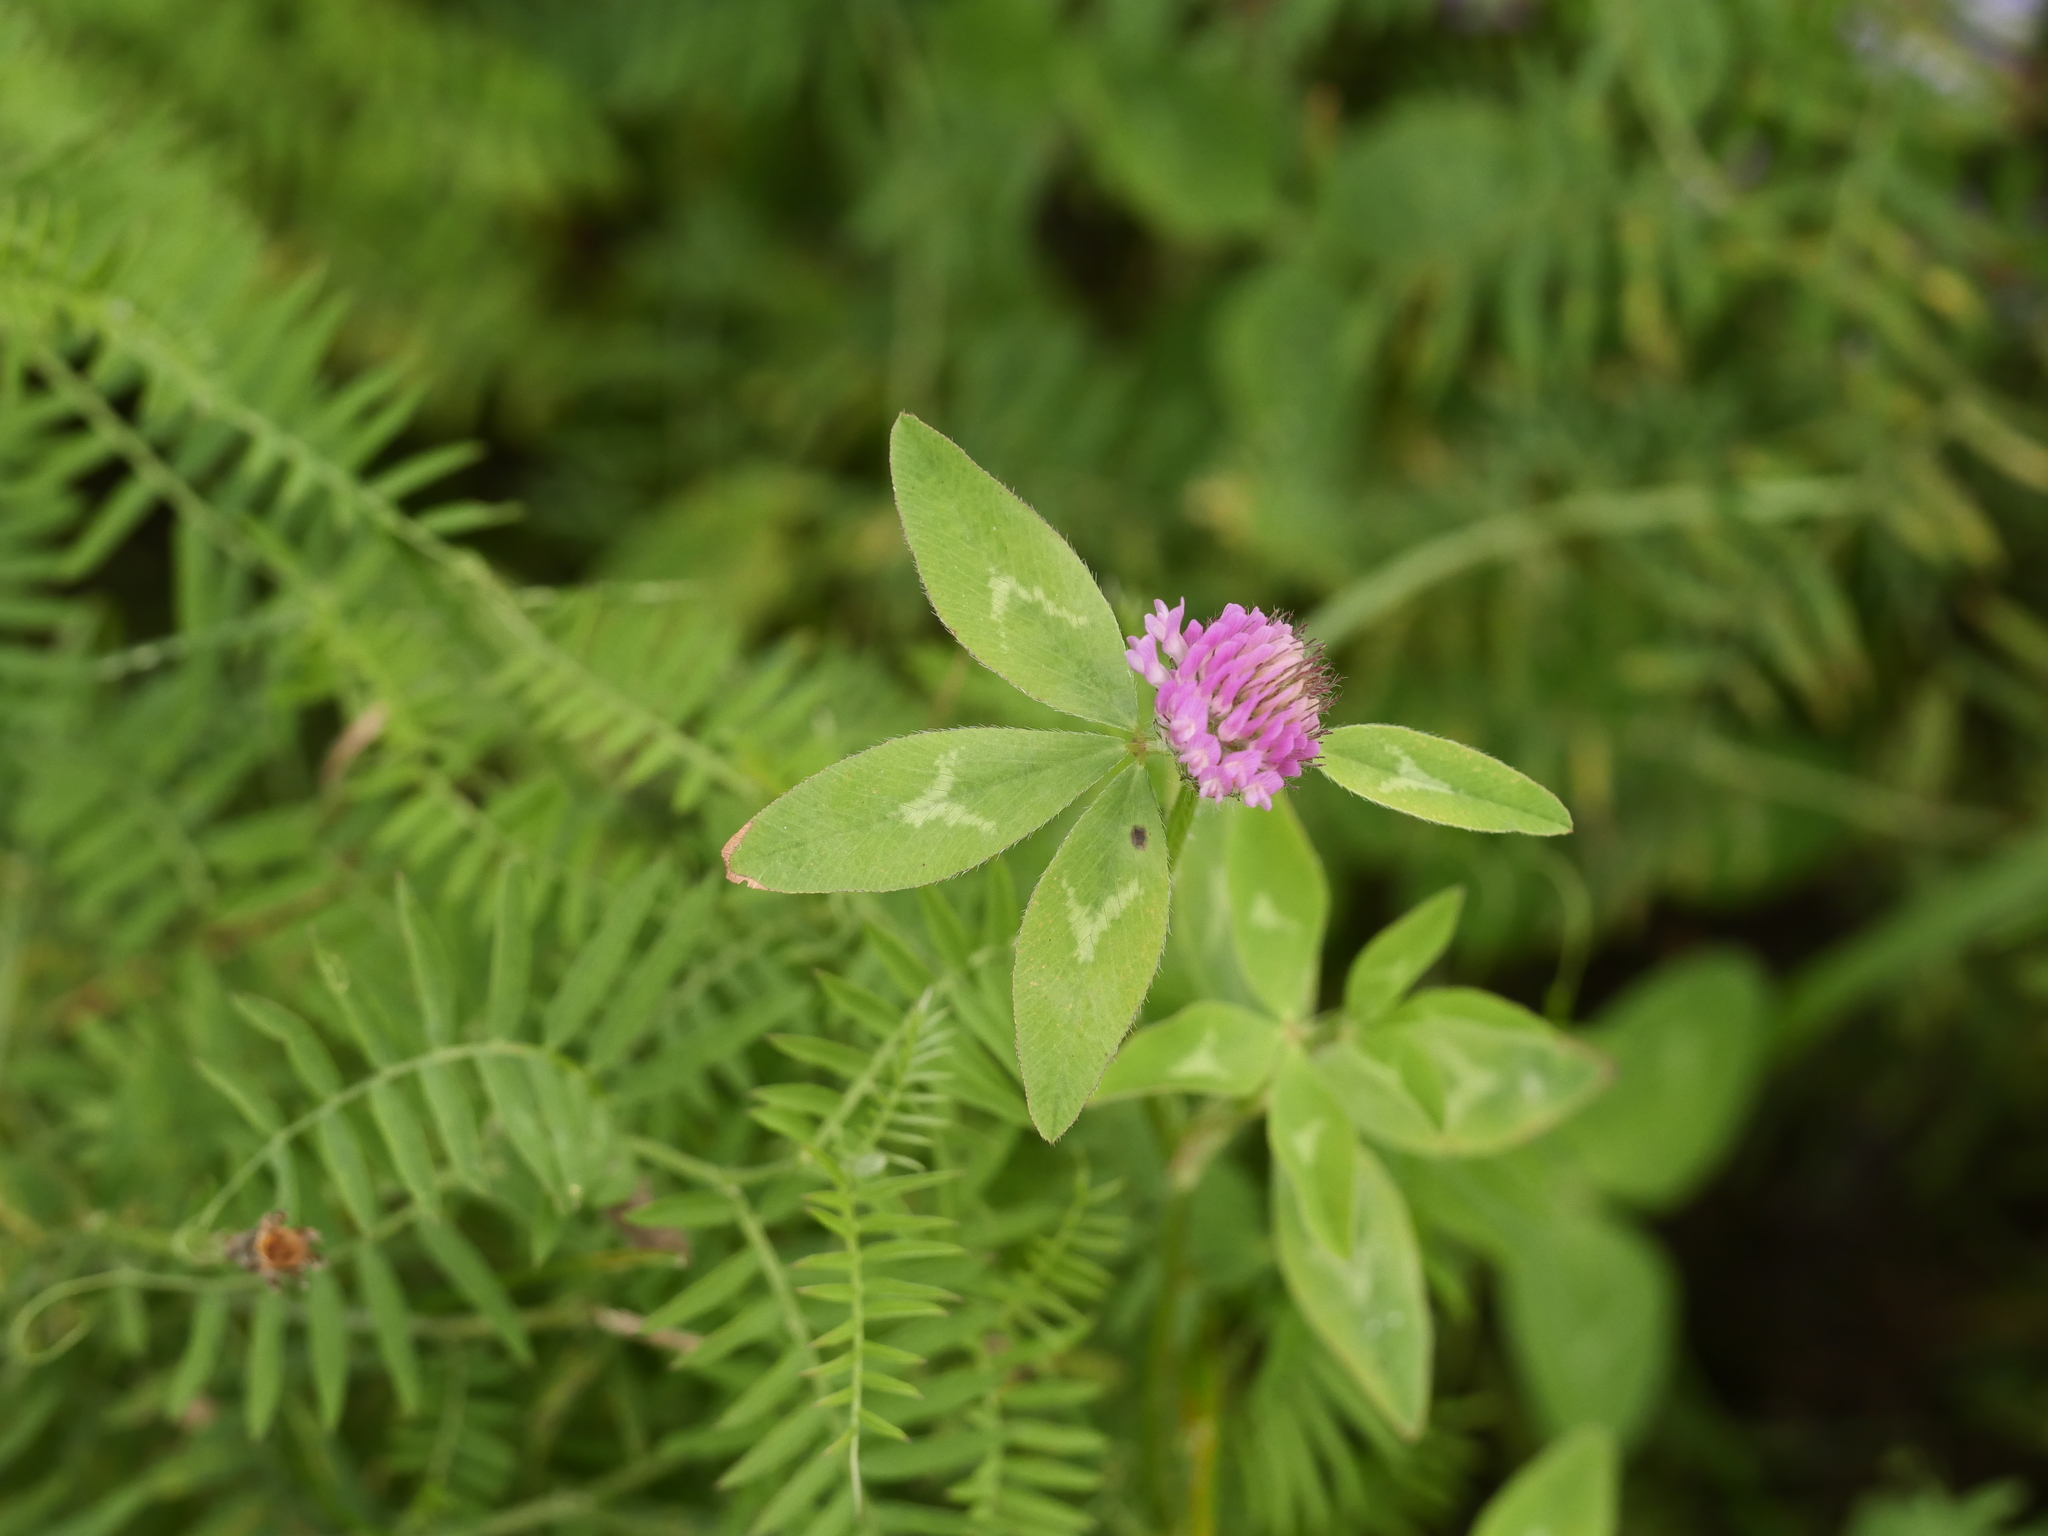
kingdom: Plantae
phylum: Tracheophyta
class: Magnoliopsida
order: Fabales
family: Fabaceae
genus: Trifolium
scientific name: Trifolium pratense
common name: Red clover
